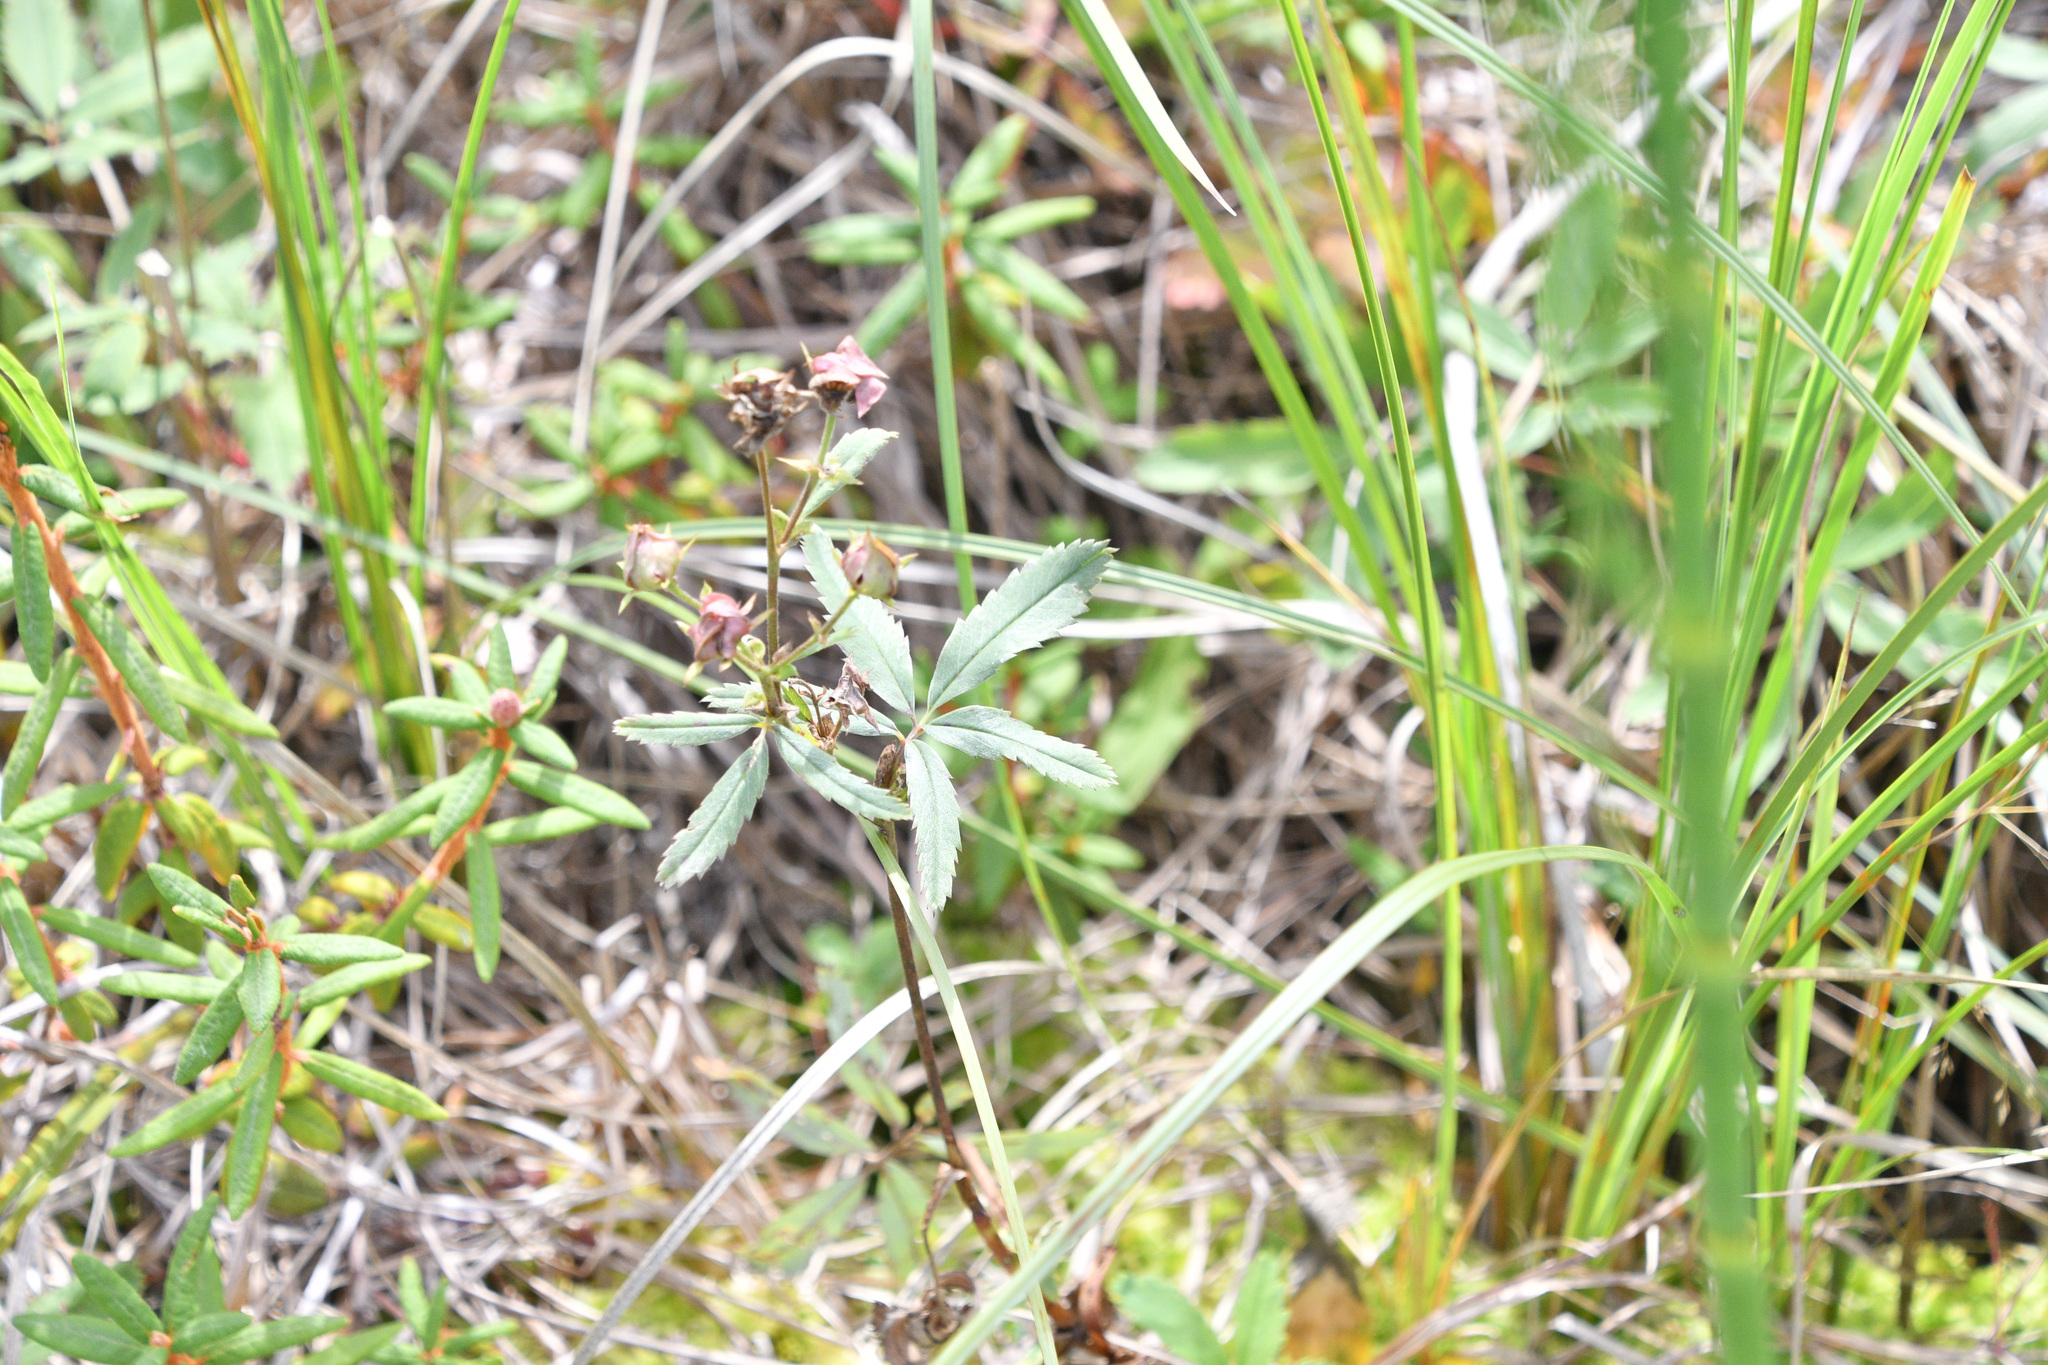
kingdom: Plantae
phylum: Tracheophyta
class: Magnoliopsida
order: Rosales
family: Rosaceae
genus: Comarum
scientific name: Comarum palustre
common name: Marsh cinquefoil
